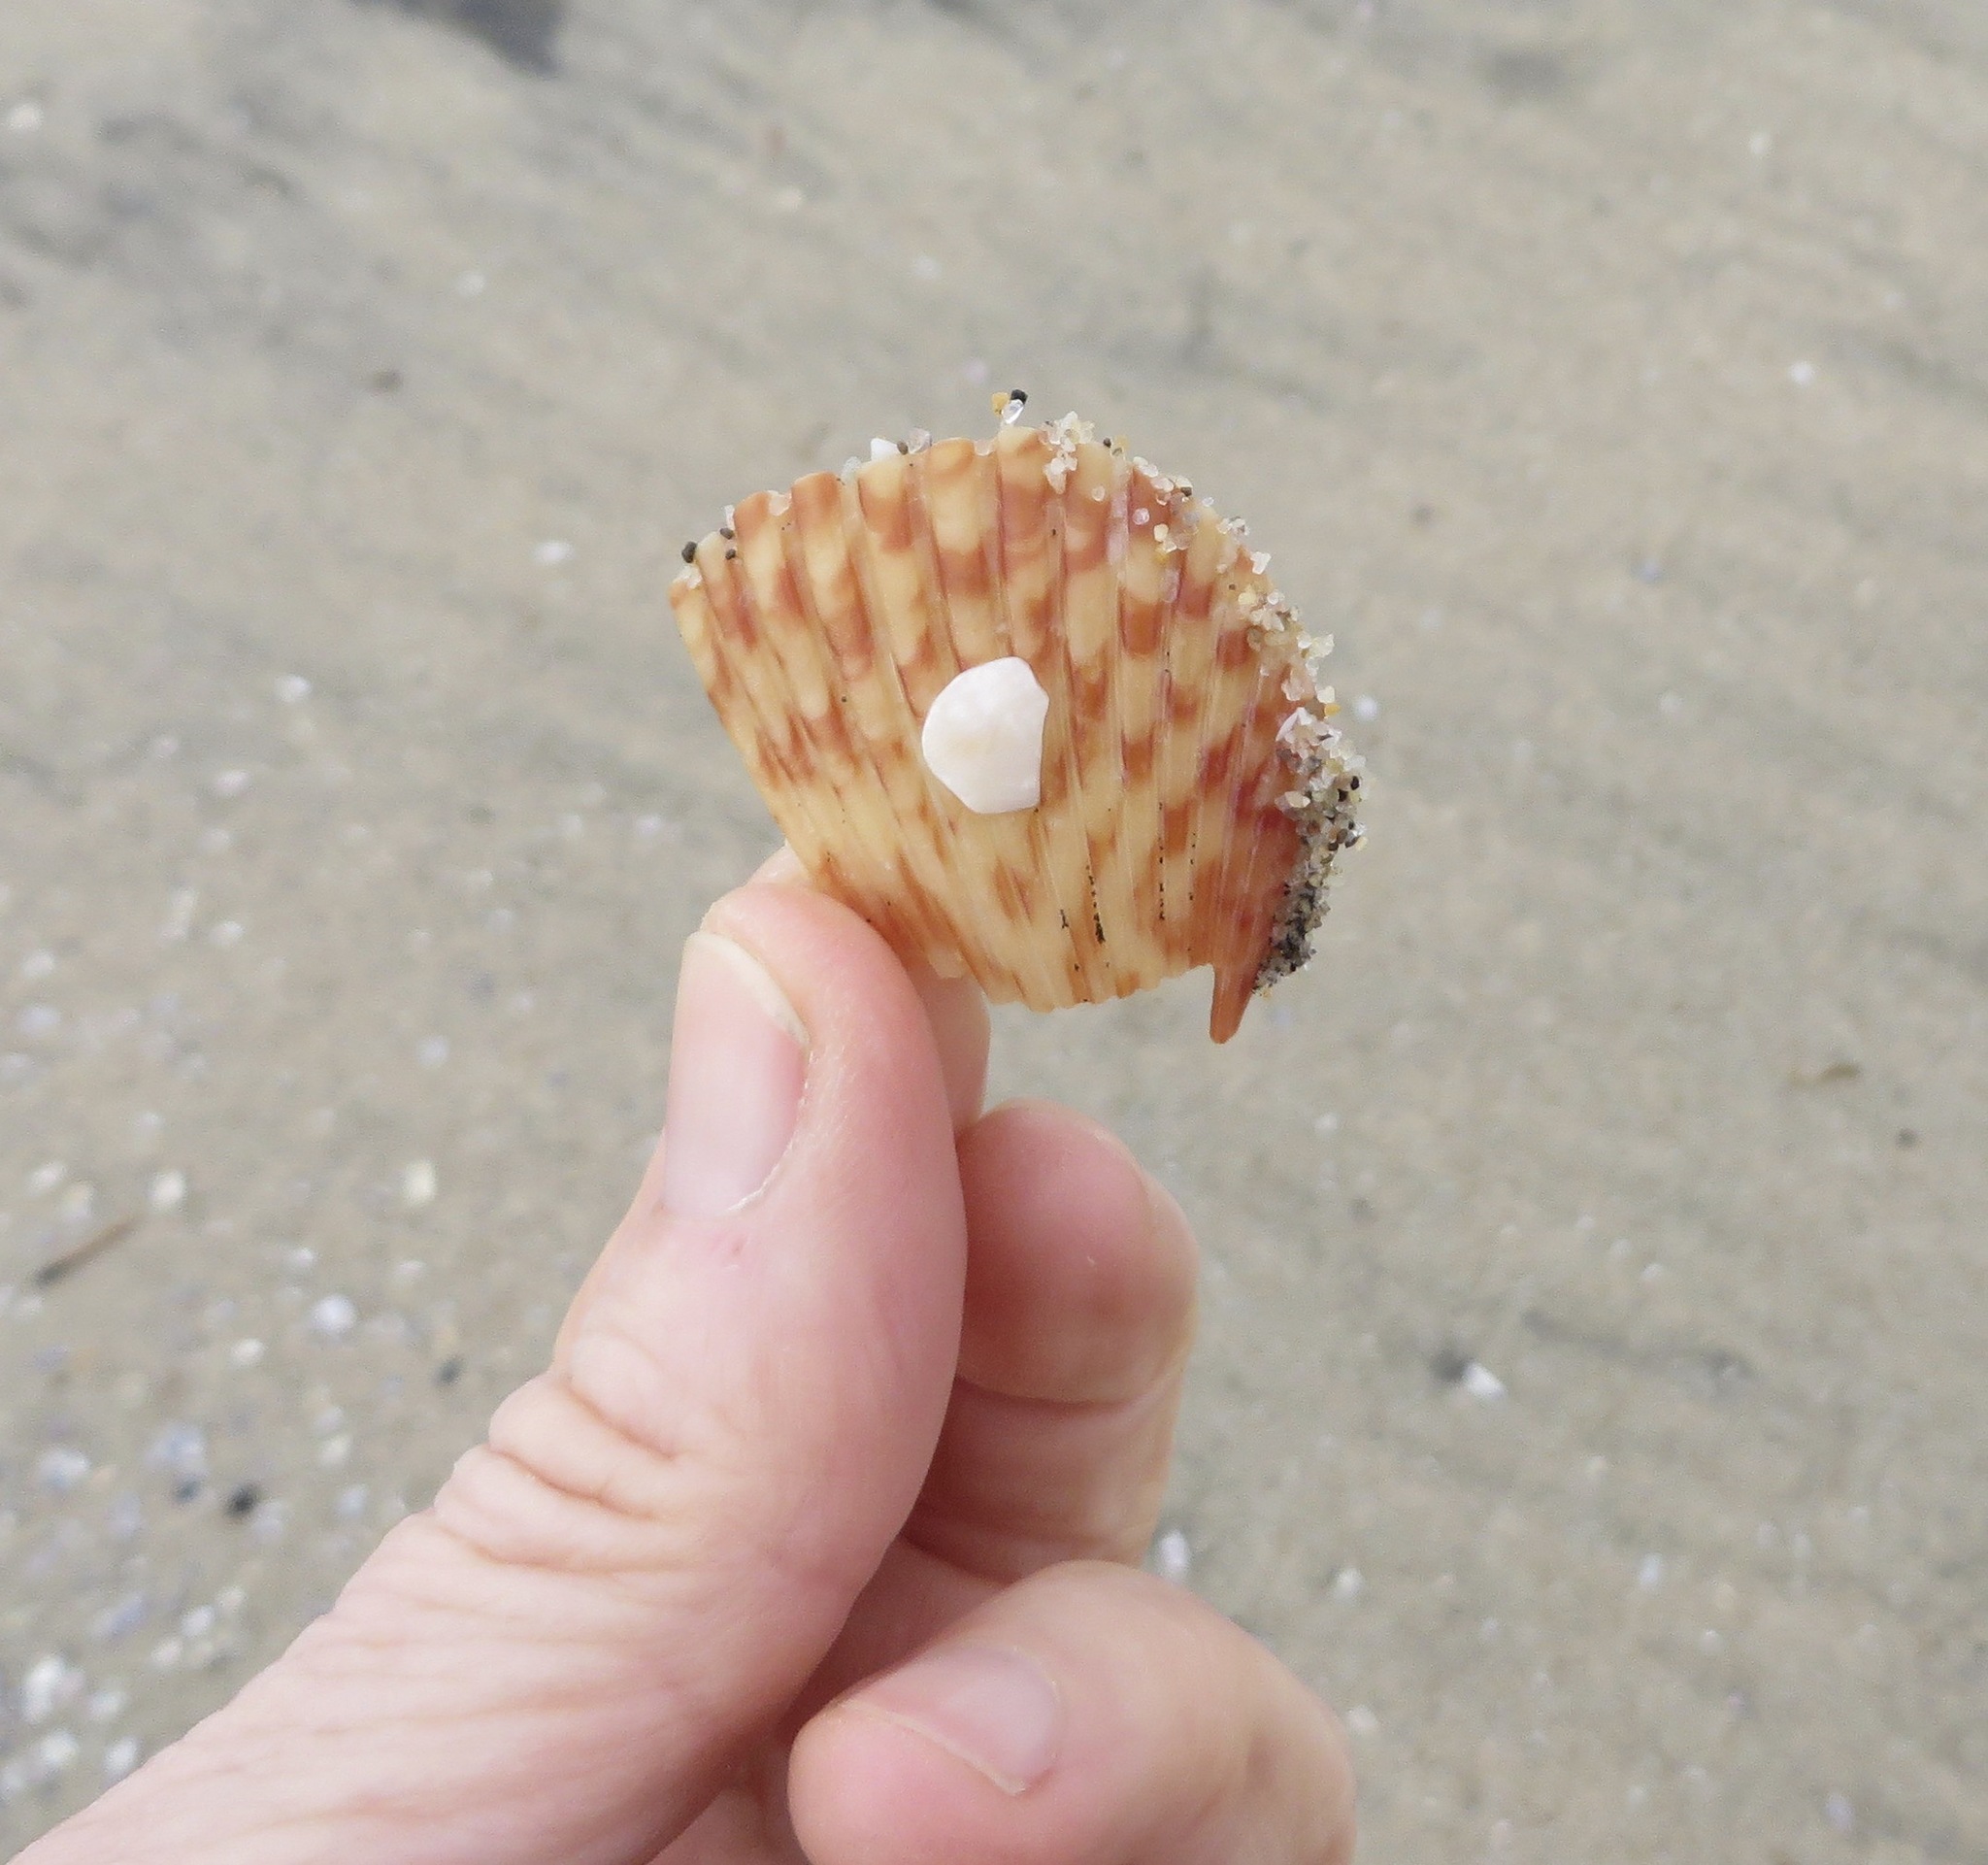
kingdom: Animalia
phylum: Mollusca
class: Bivalvia
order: Pectinida
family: Pectinidae
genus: Argopecten
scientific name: Argopecten ventricosus
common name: Catarina scallop
